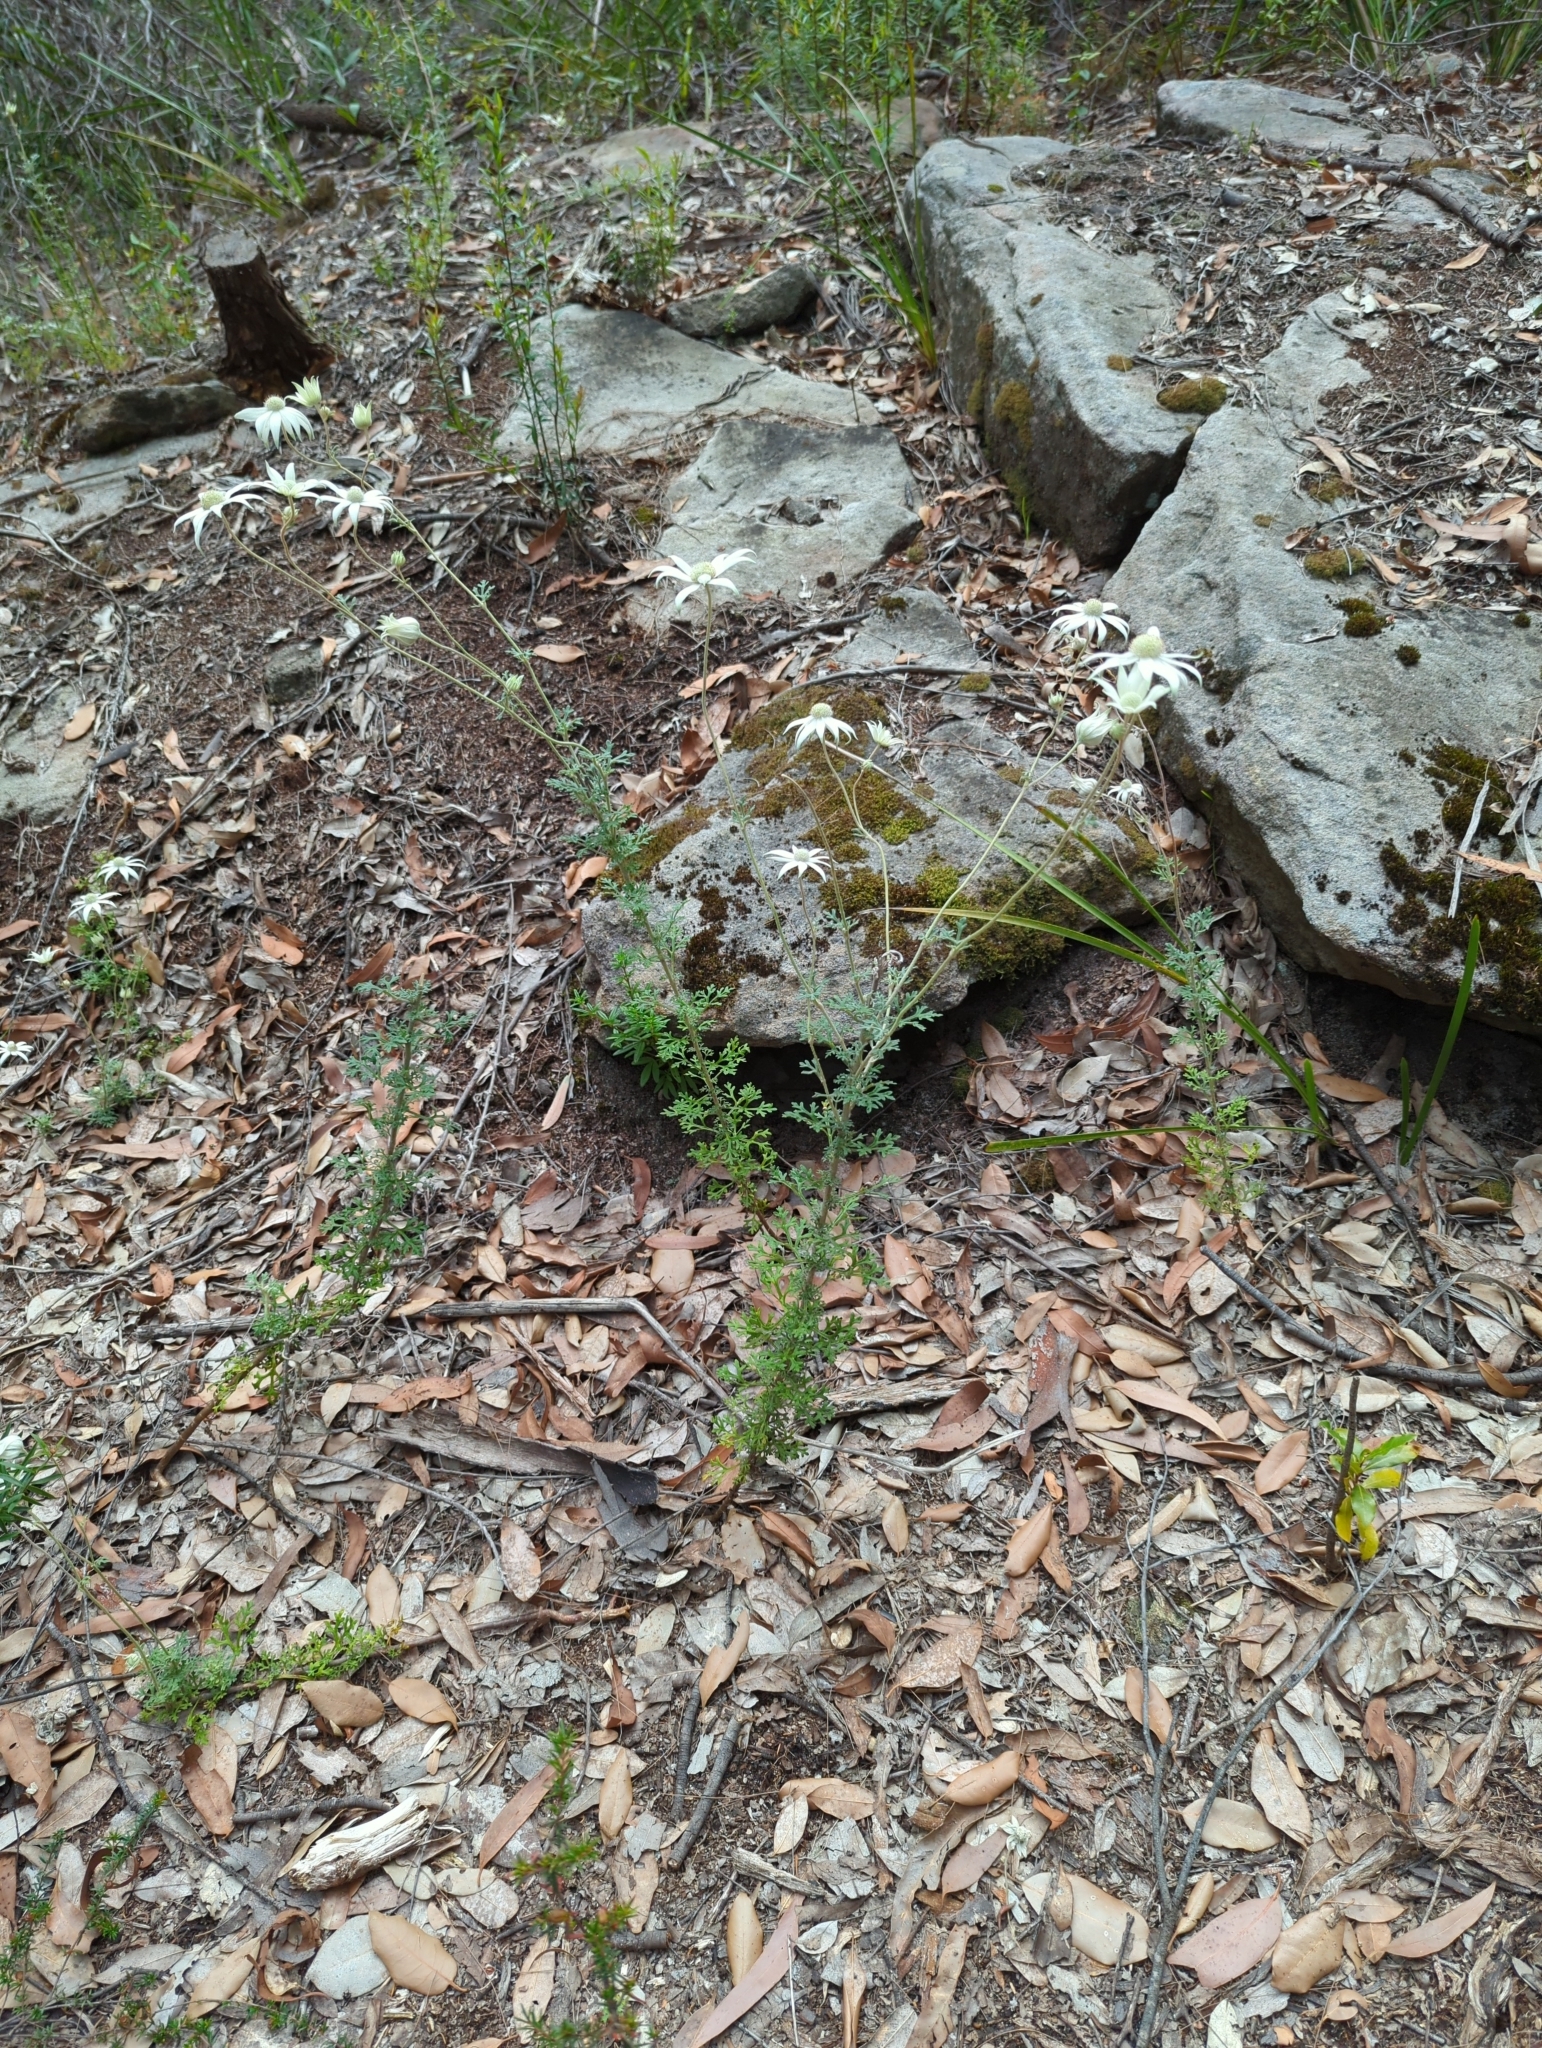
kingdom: Plantae
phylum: Tracheophyta
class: Magnoliopsida
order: Apiales
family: Apiaceae
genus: Actinotus
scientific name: Actinotus helianthi
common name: Flannel-flower
